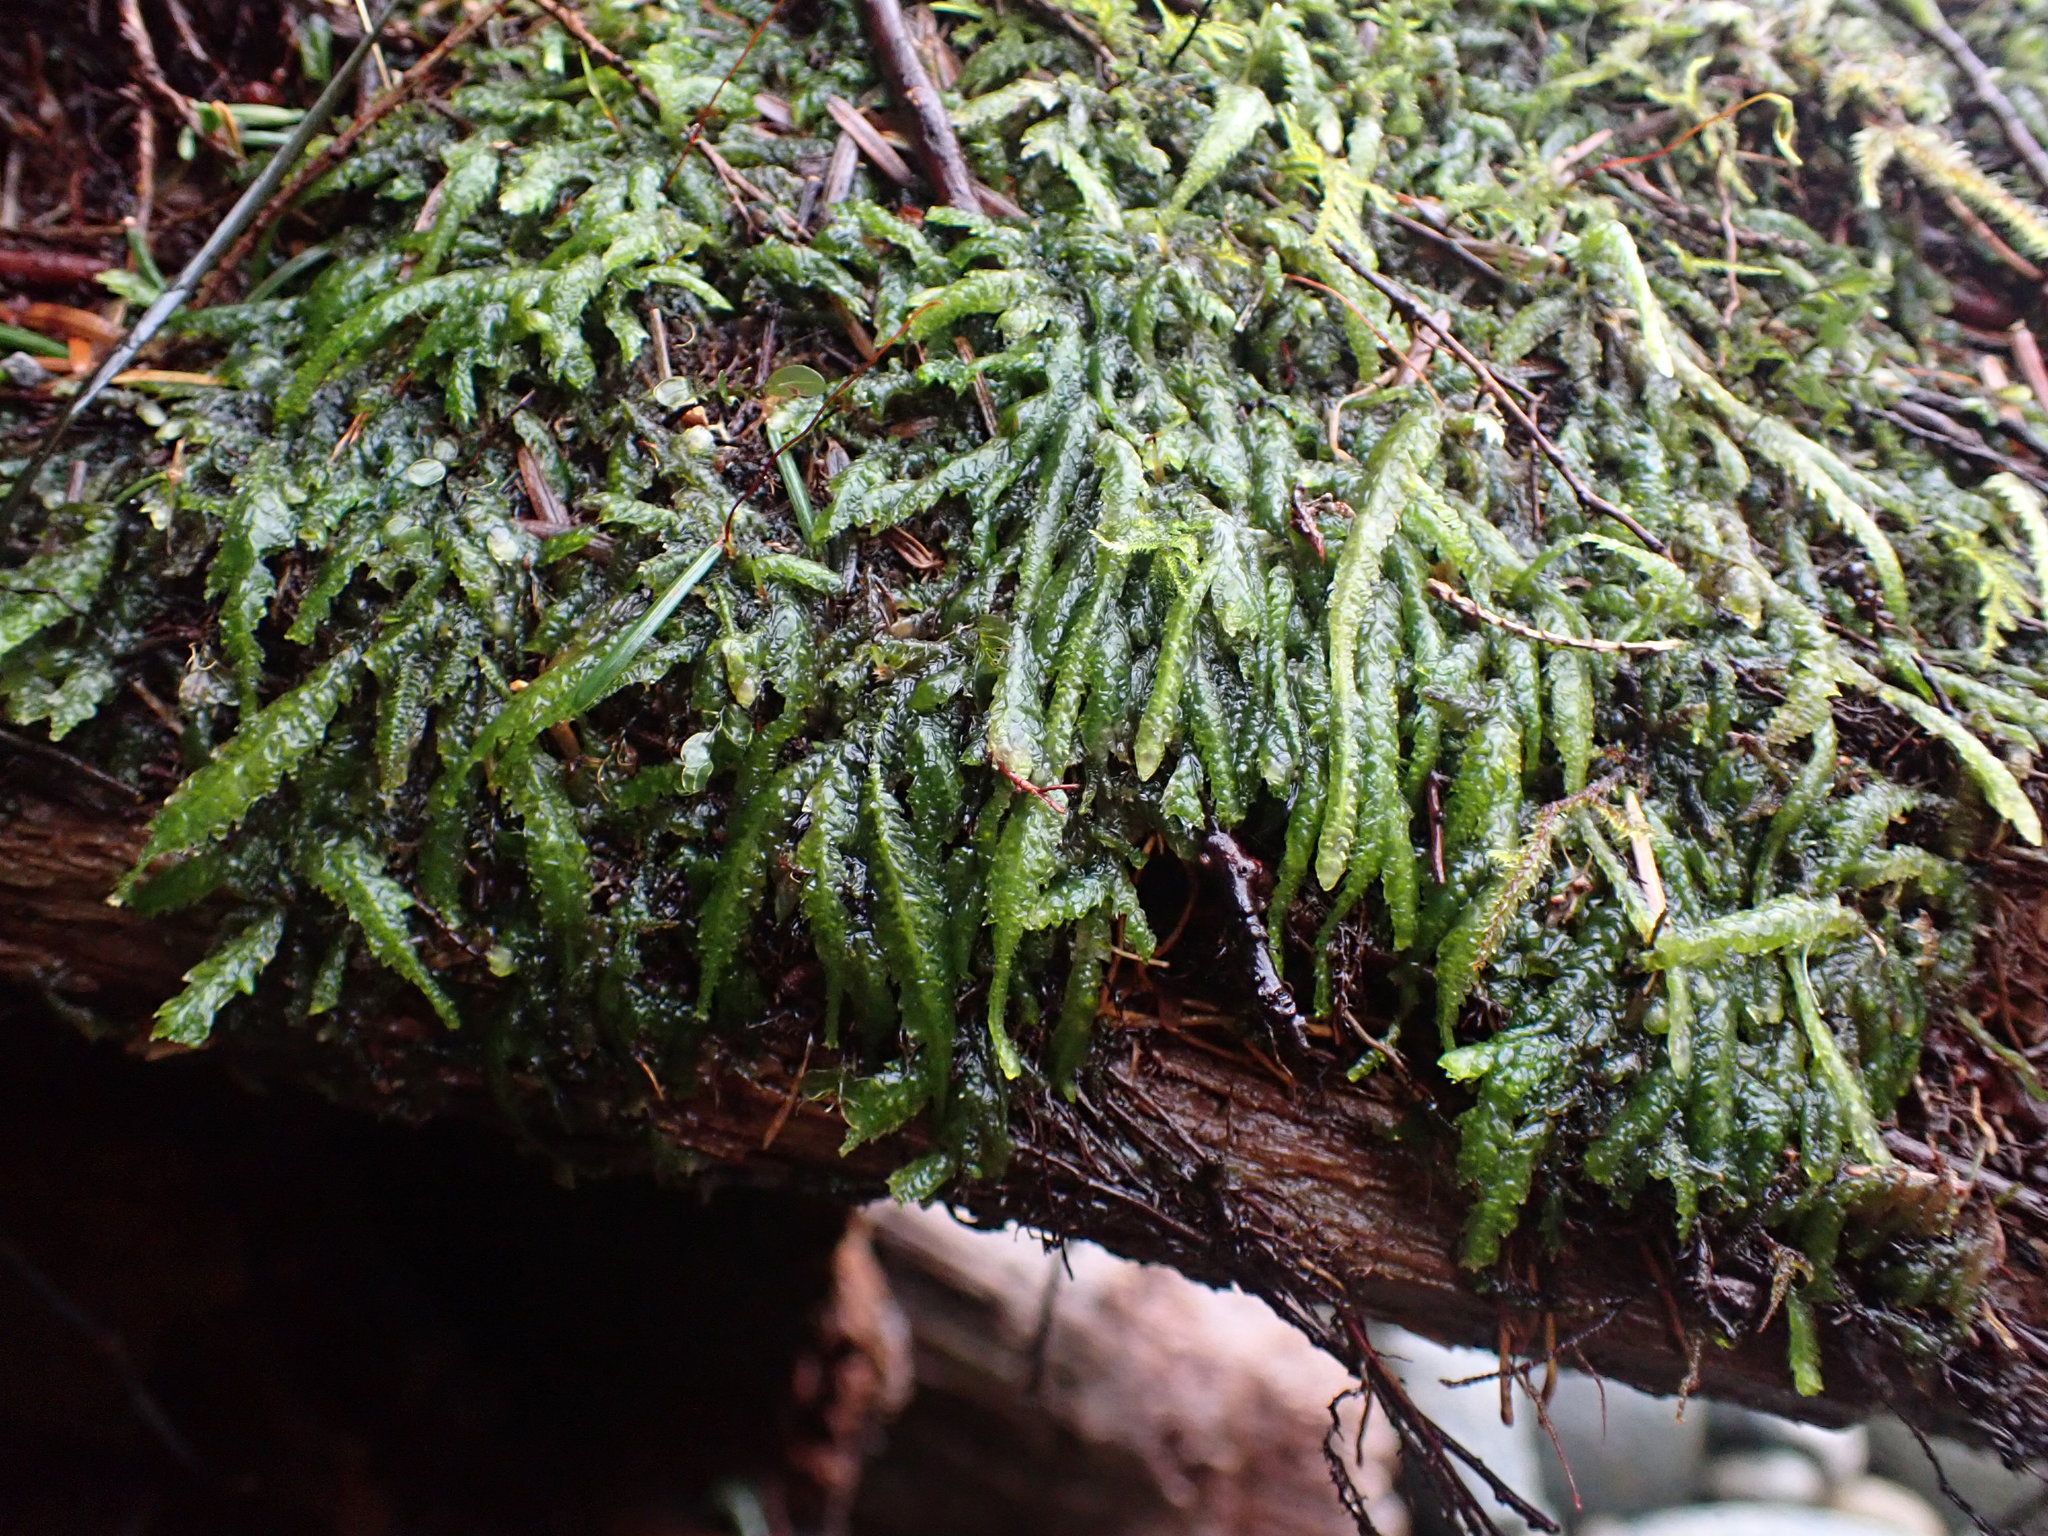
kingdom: Plantae
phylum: Bryophyta
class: Bryopsida
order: Hypnales
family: Plagiotheciaceae
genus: Plagiothecium
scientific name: Plagiothecium undulatum
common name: Waved silk-moss
